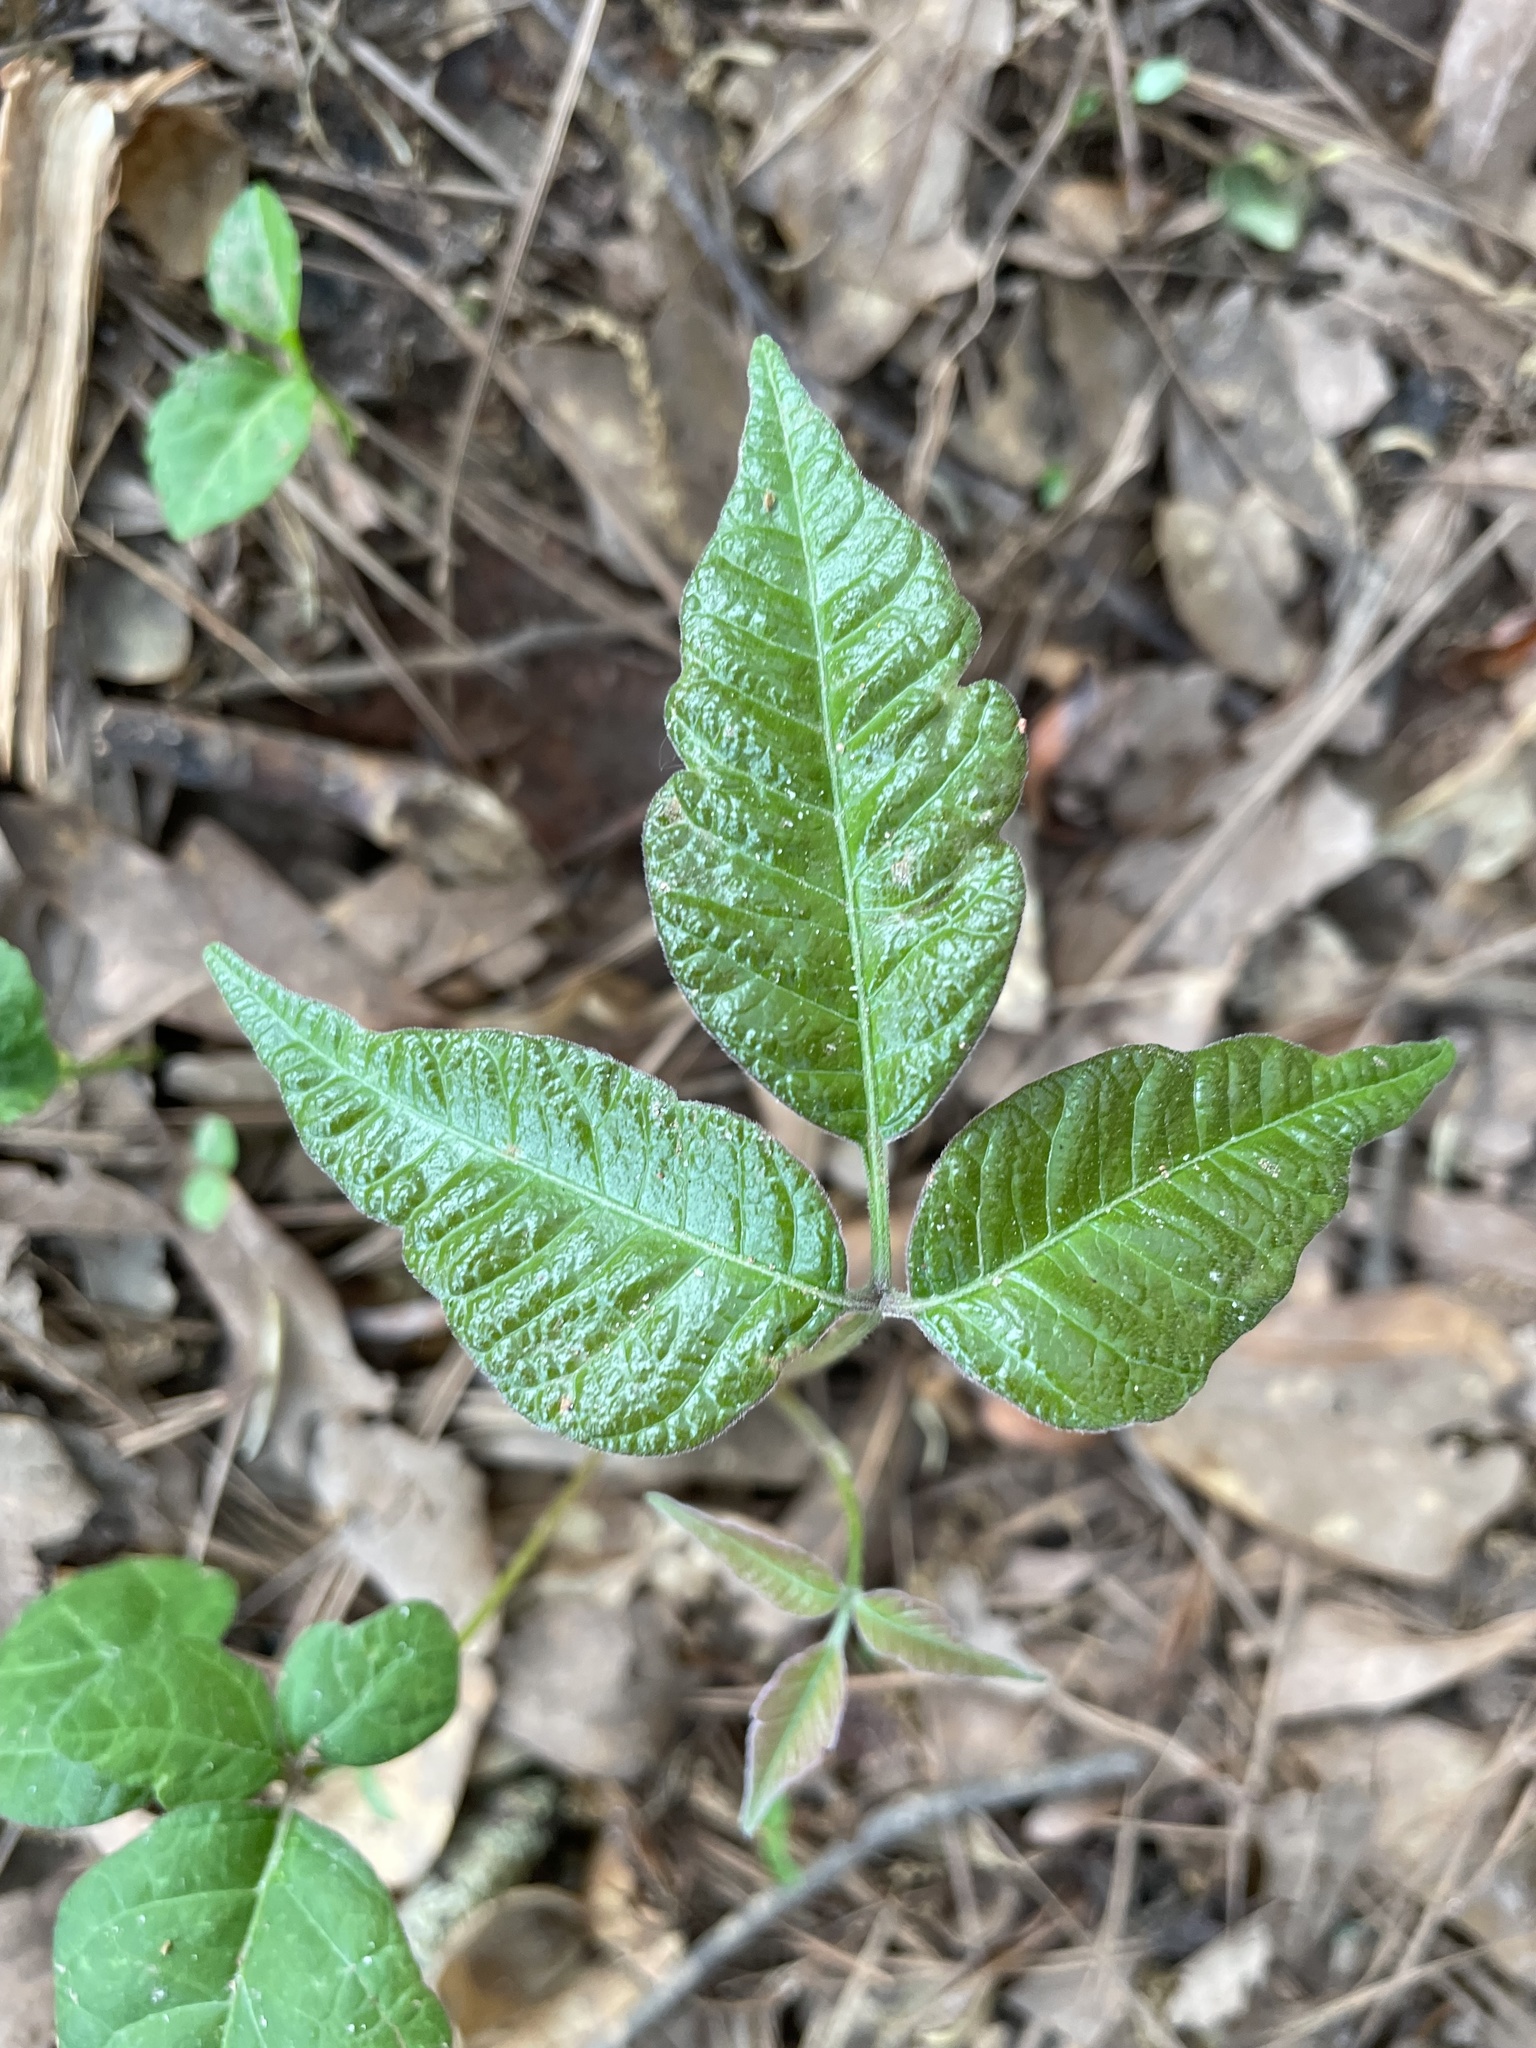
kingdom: Plantae
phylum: Tracheophyta
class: Magnoliopsida
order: Sapindales
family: Anacardiaceae
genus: Toxicodendron
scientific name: Toxicodendron radicans
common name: Poison ivy
